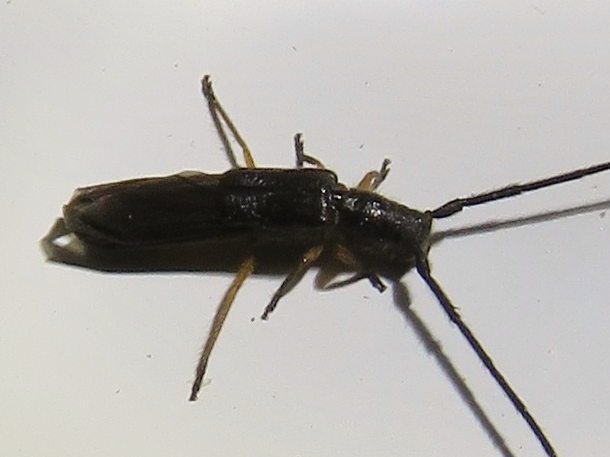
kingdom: Animalia
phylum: Arthropoda
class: Insecta
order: Coleoptera
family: Cerambycidae
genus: Methia
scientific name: Methia
